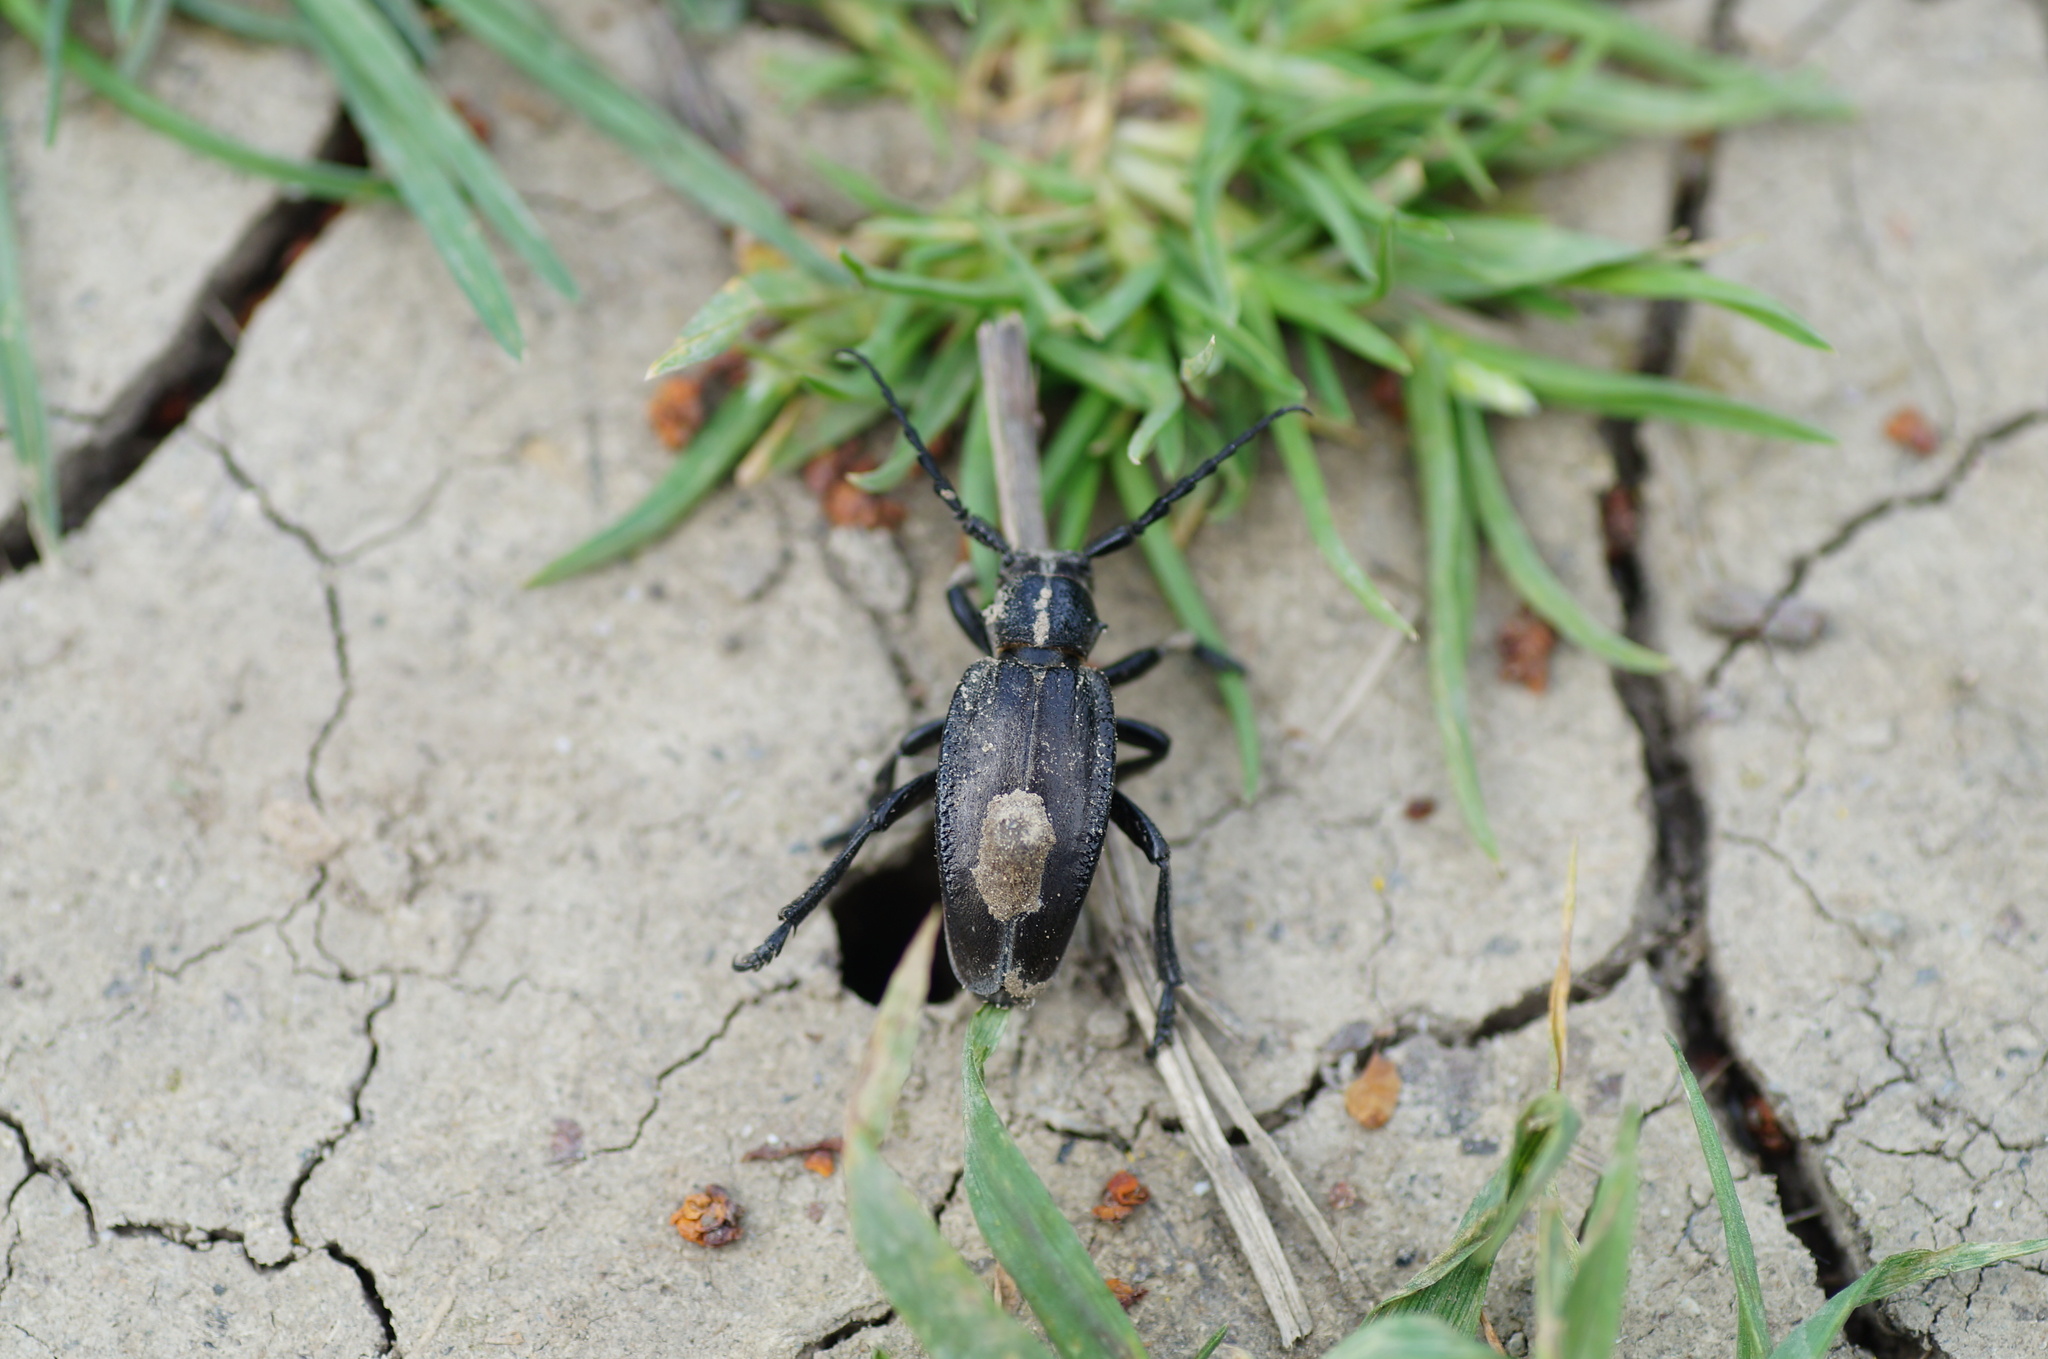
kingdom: Animalia
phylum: Arthropoda
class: Insecta
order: Coleoptera
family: Cerambycidae
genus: Dorcadion
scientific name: Dorcadion carinatum
